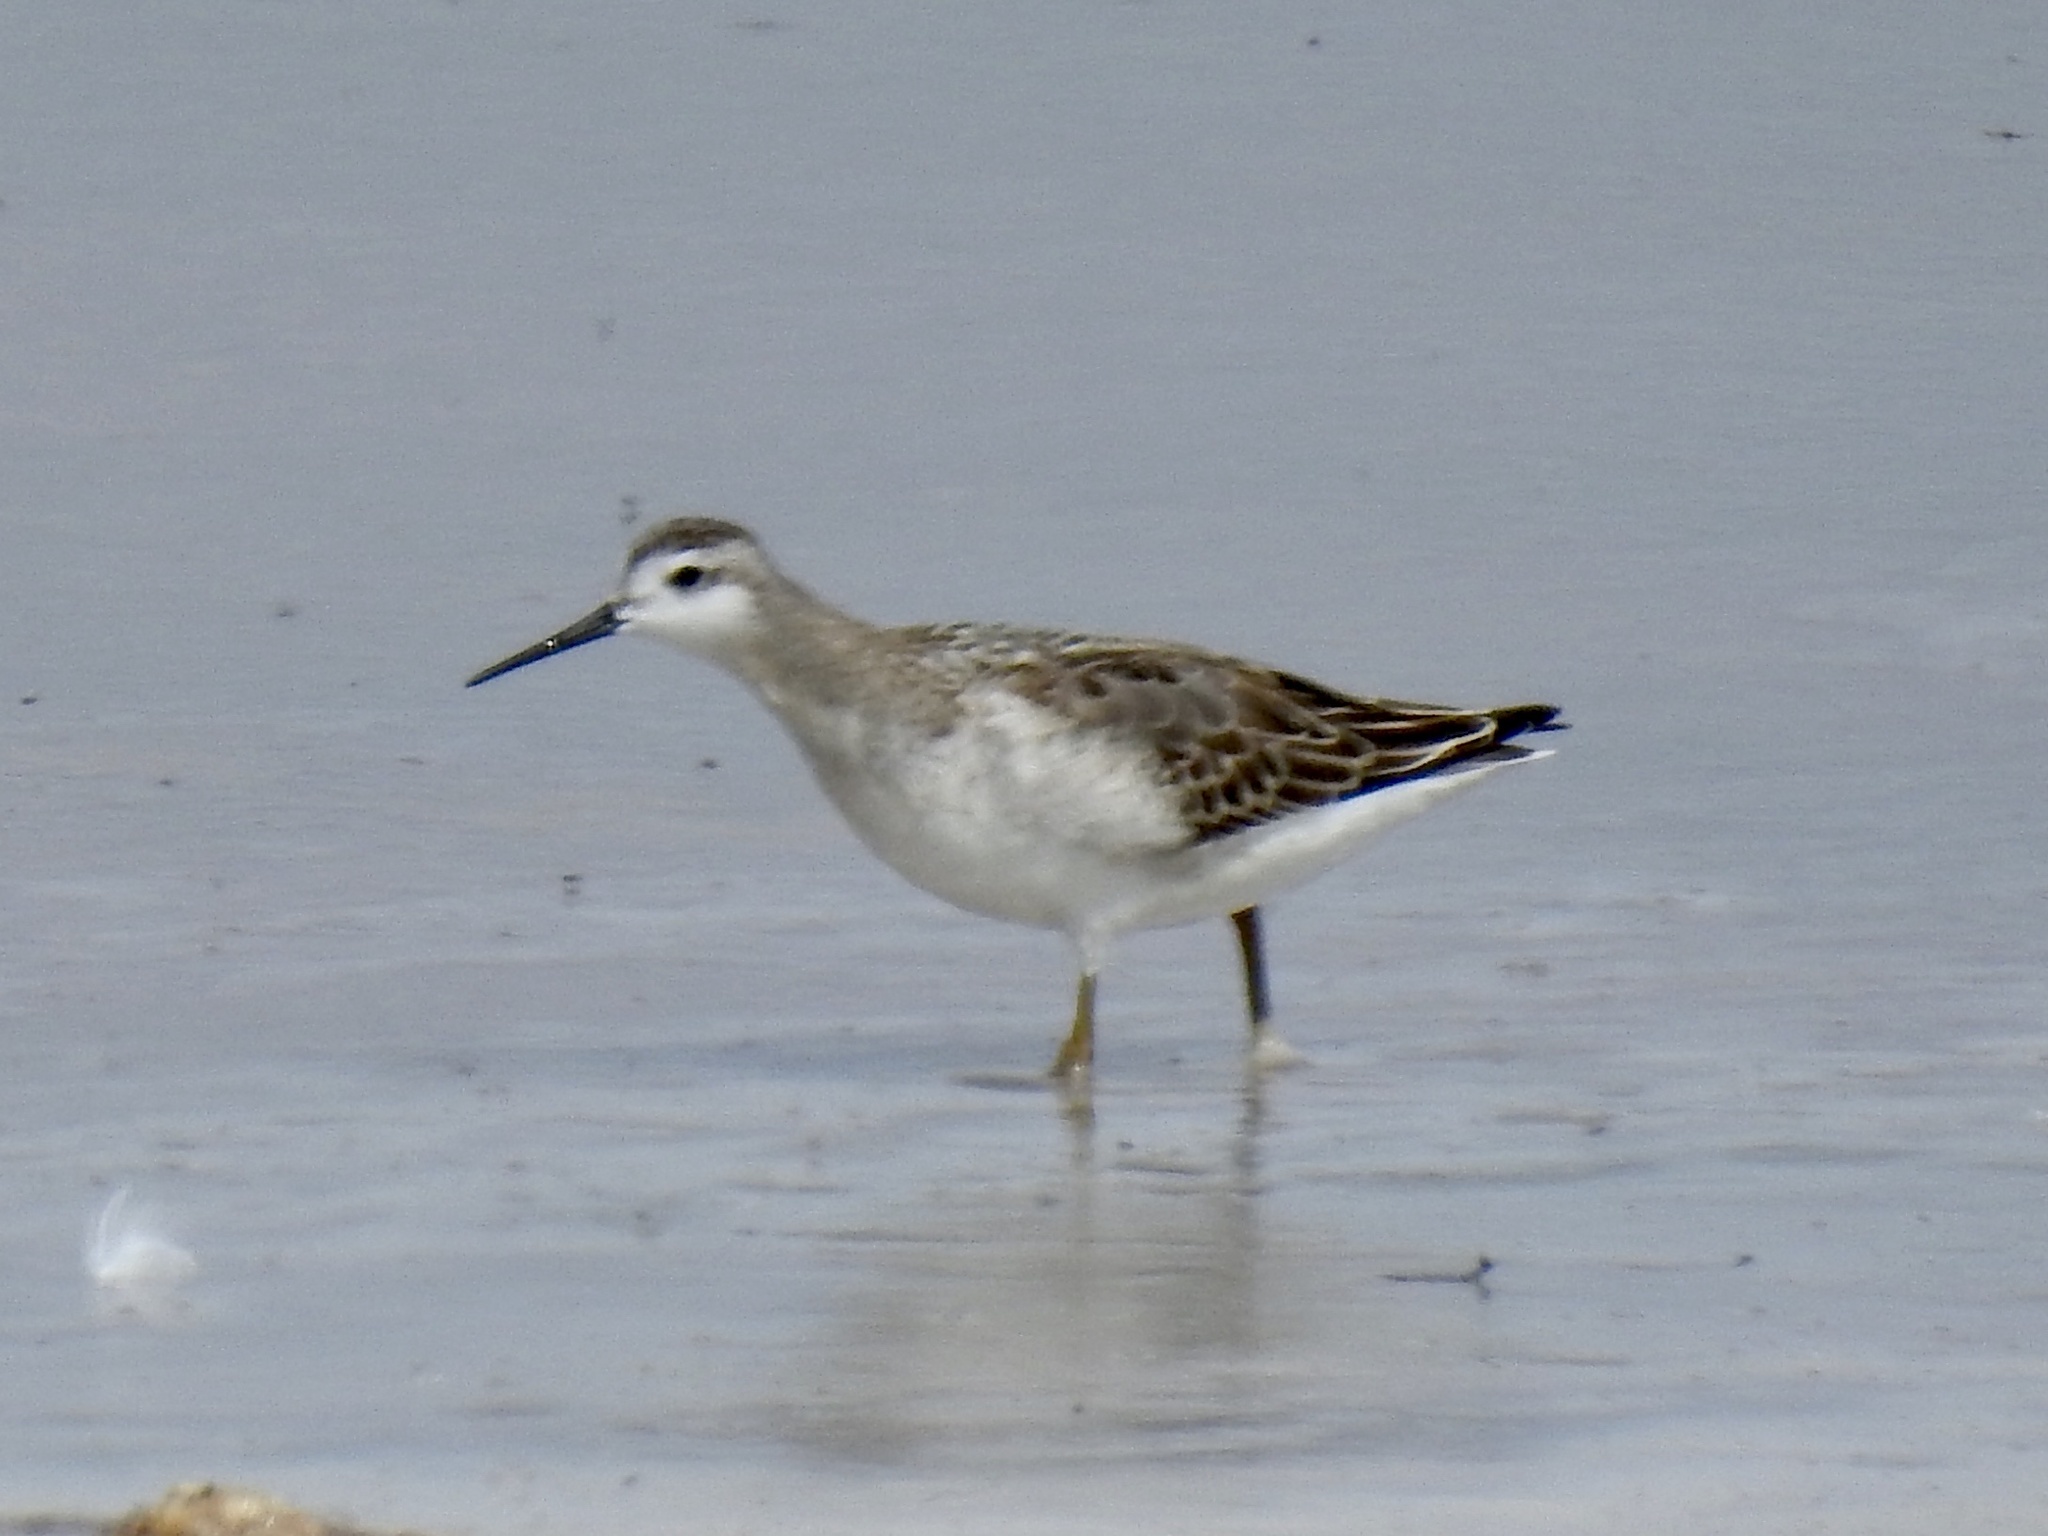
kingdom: Animalia
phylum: Chordata
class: Aves
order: Charadriiformes
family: Scolopacidae
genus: Phalaropus
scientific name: Phalaropus tricolor
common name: Wilson's phalarope
